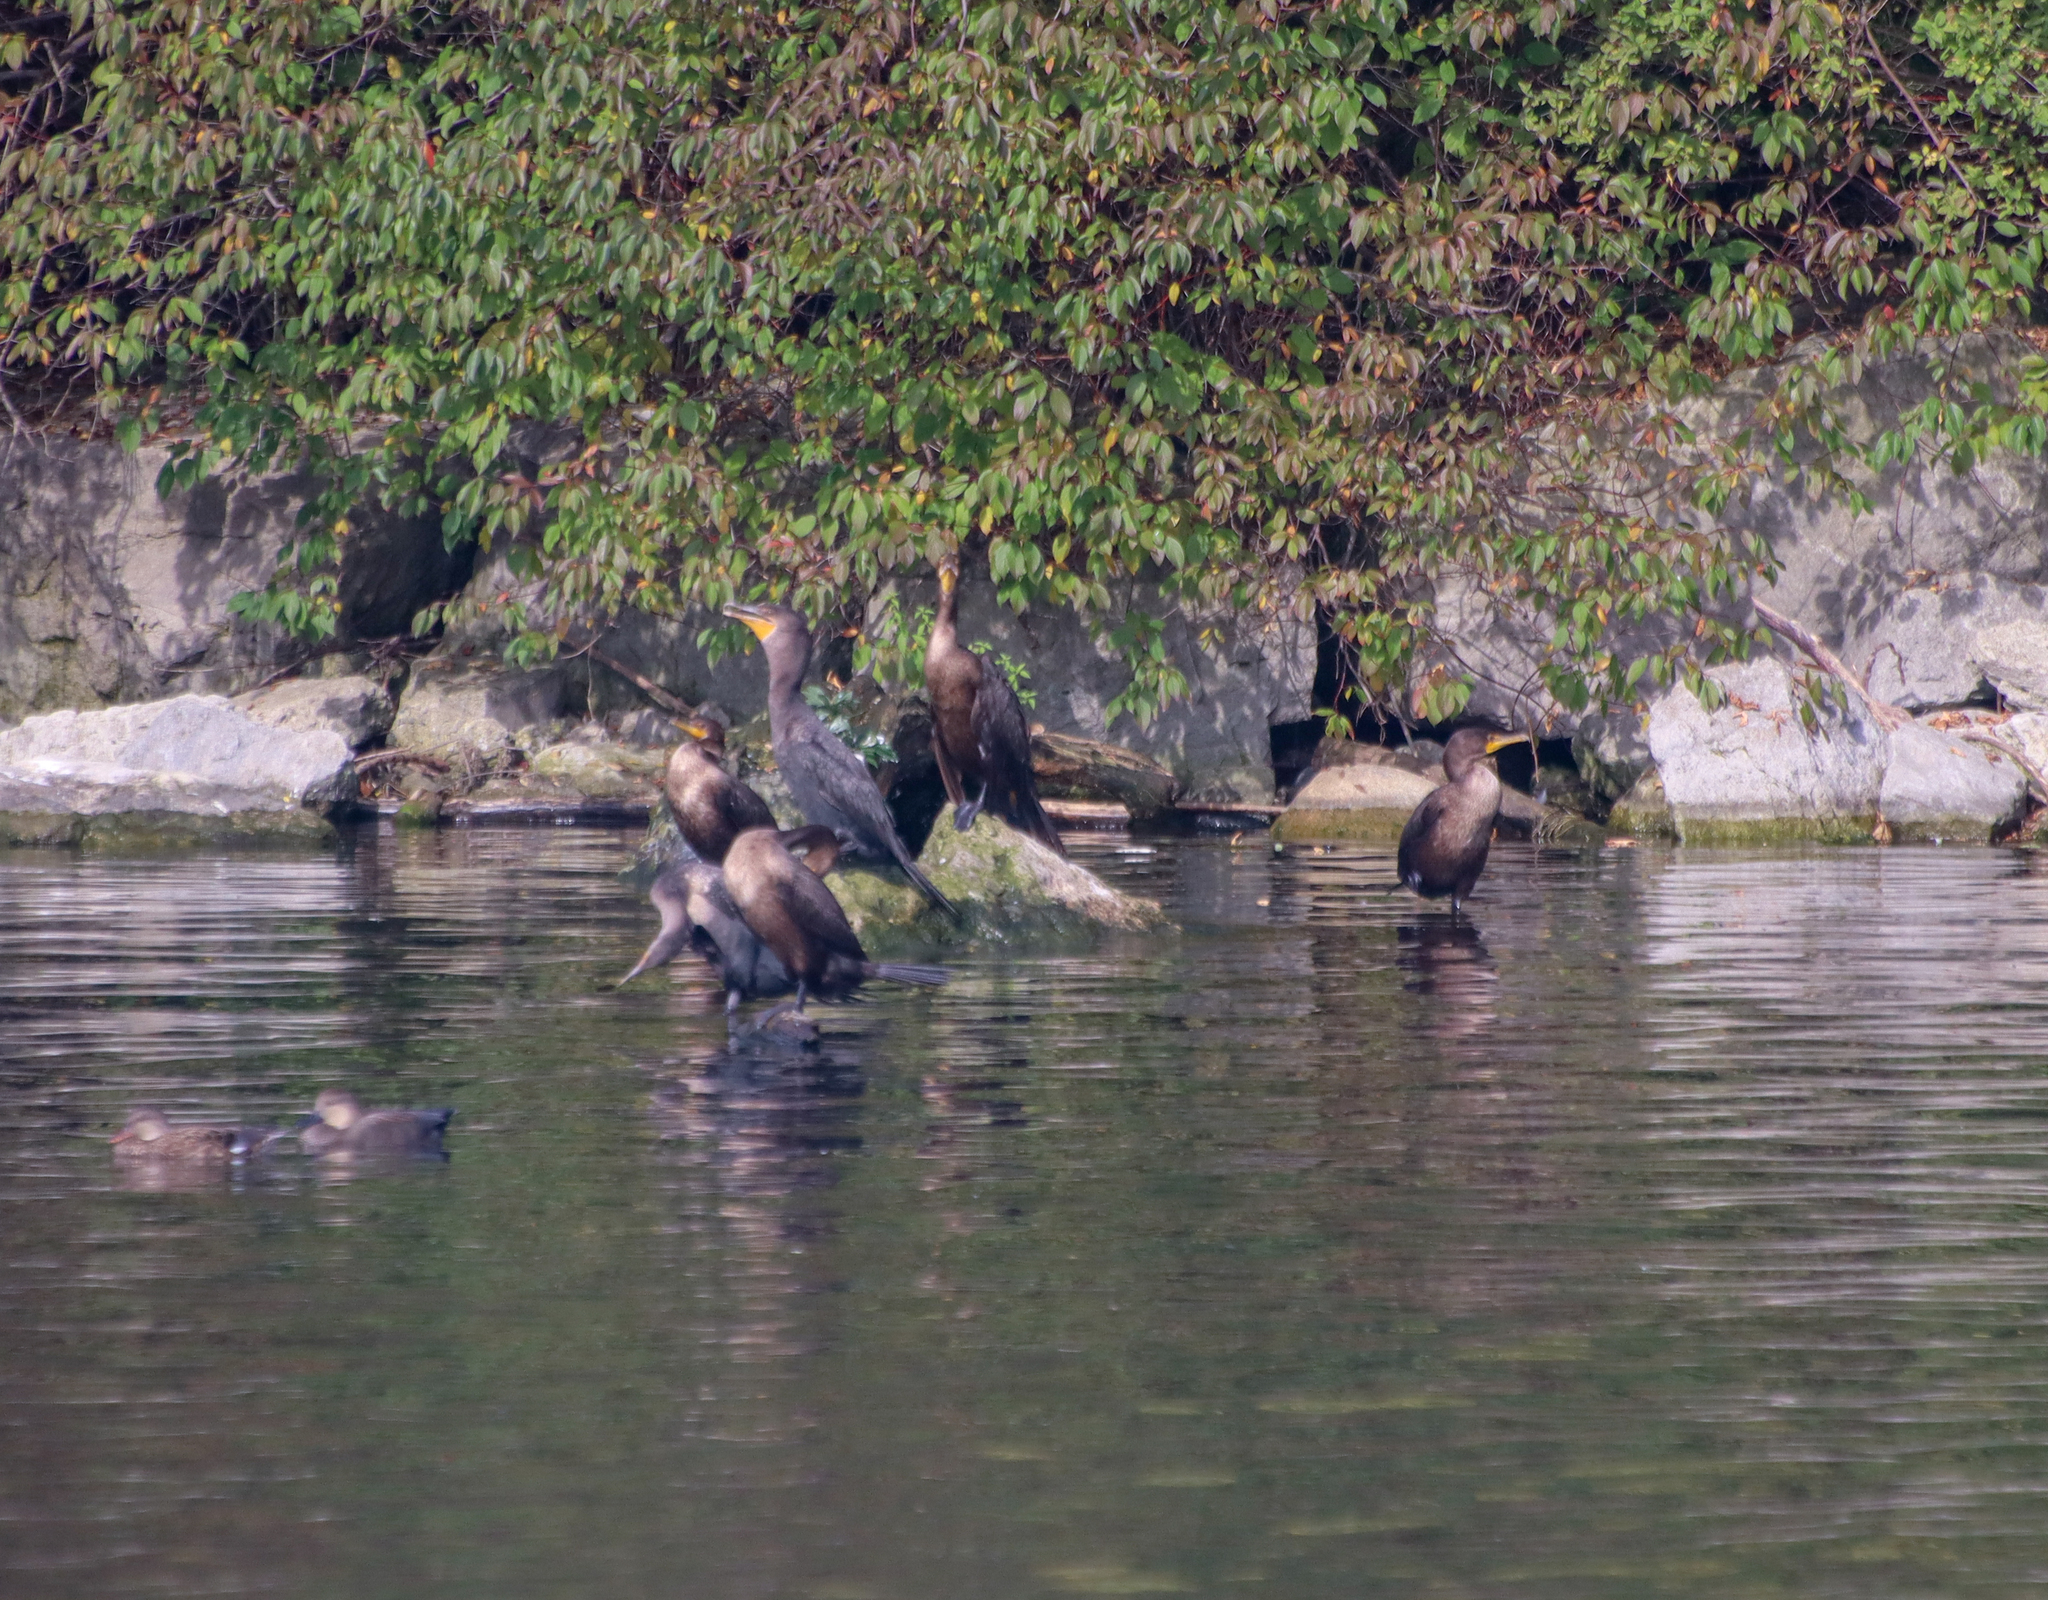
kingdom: Animalia
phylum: Chordata
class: Aves
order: Suliformes
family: Phalacrocoracidae
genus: Phalacrocorax
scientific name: Phalacrocorax auritus
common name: Double-crested cormorant
